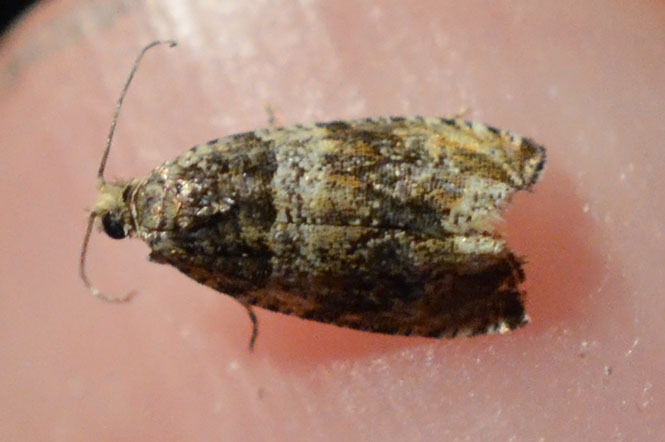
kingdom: Animalia
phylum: Arthropoda
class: Insecta
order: Lepidoptera
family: Tortricidae
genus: Celypha
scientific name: Celypha aurofasciana
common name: Moss marble
